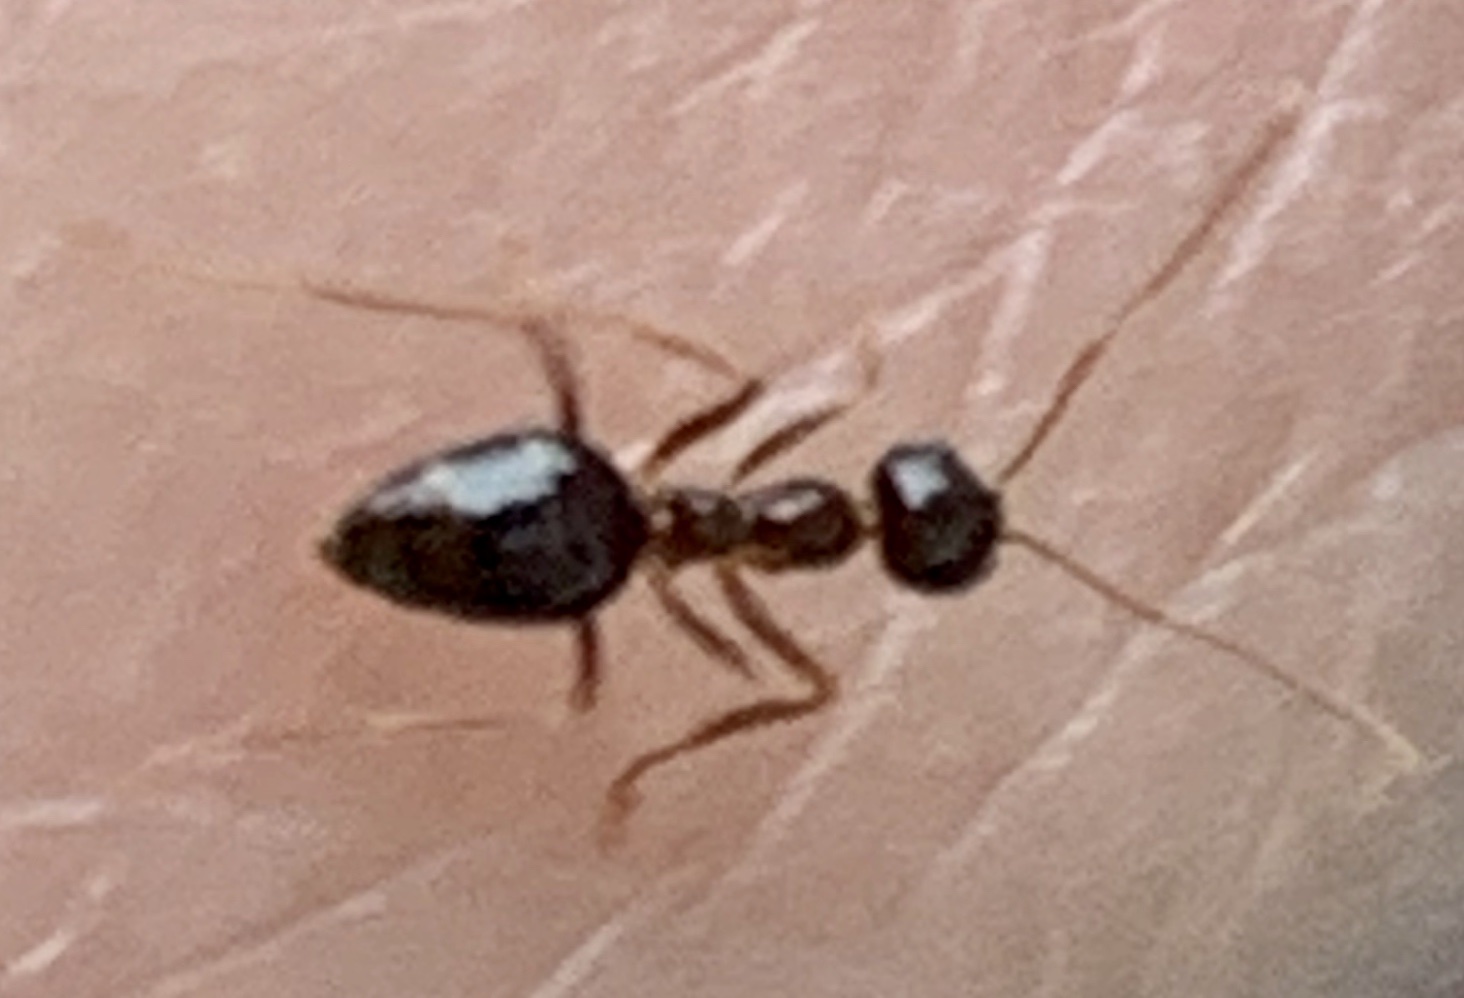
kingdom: Animalia
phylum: Arthropoda
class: Insecta
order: Hymenoptera
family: Formicidae
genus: Prenolepis
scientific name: Prenolepis imparis
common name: Small honey ant
